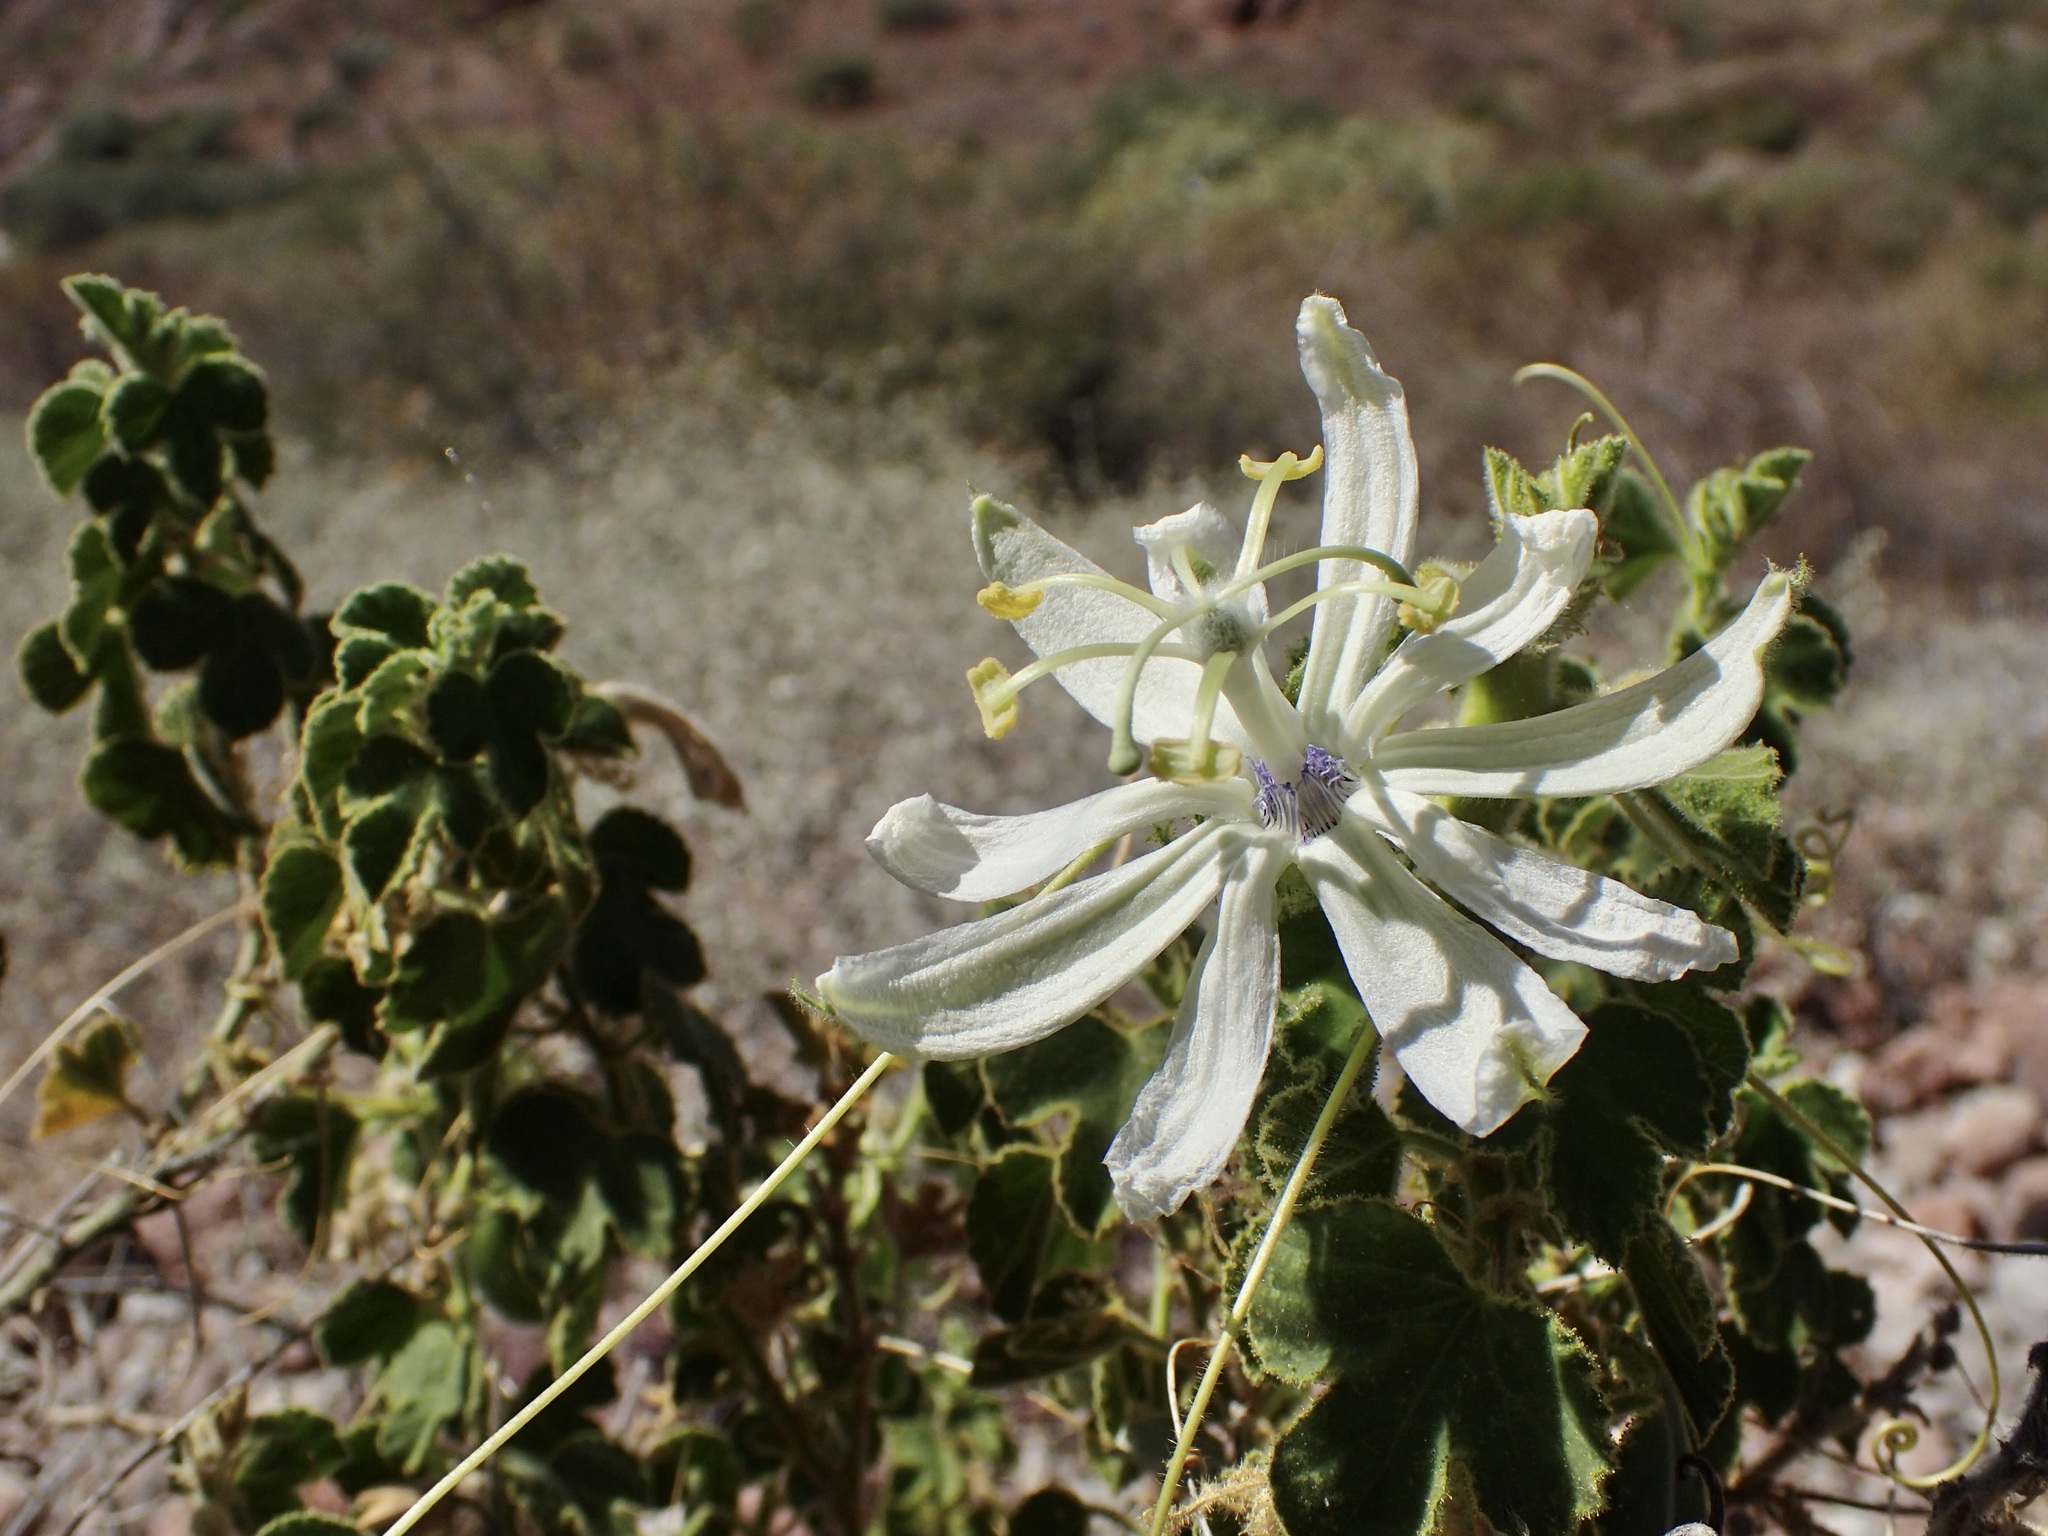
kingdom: Plantae
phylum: Tracheophyta
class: Magnoliopsida
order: Malpighiales
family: Passifloraceae
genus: Passiflora
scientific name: Passiflora palmeri
